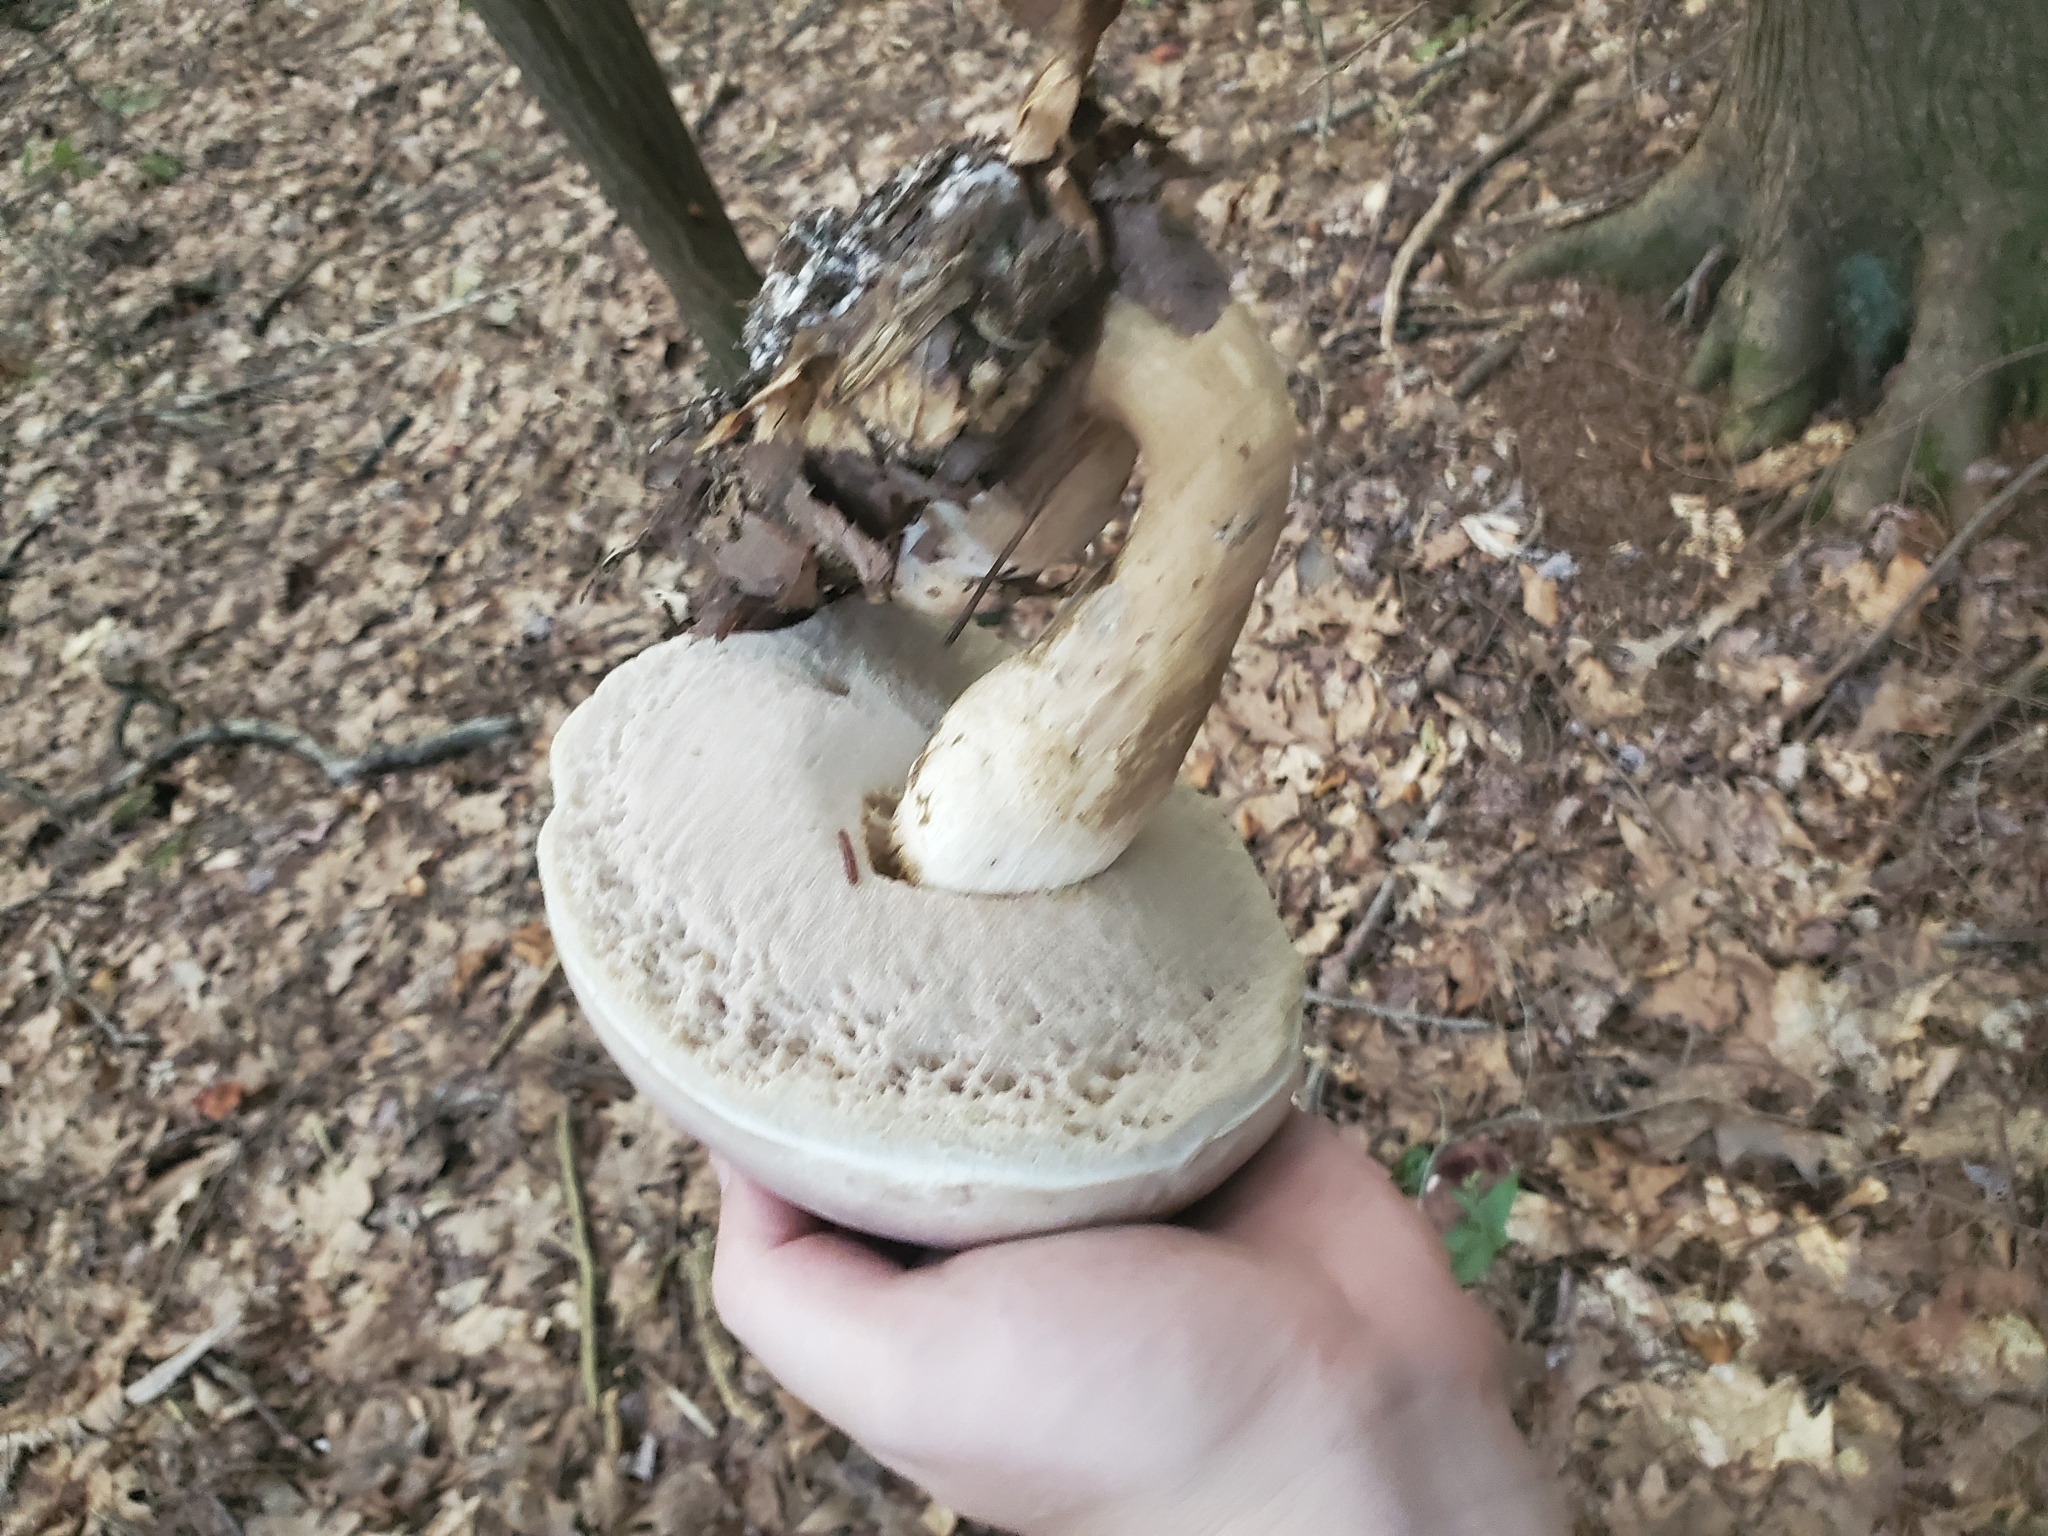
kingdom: Fungi
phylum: Basidiomycota
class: Agaricomycetes
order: Boletales
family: Boletaceae
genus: Tylopilus
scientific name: Tylopilus rubrobrunneus
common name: Reddish brown bitter bolete
